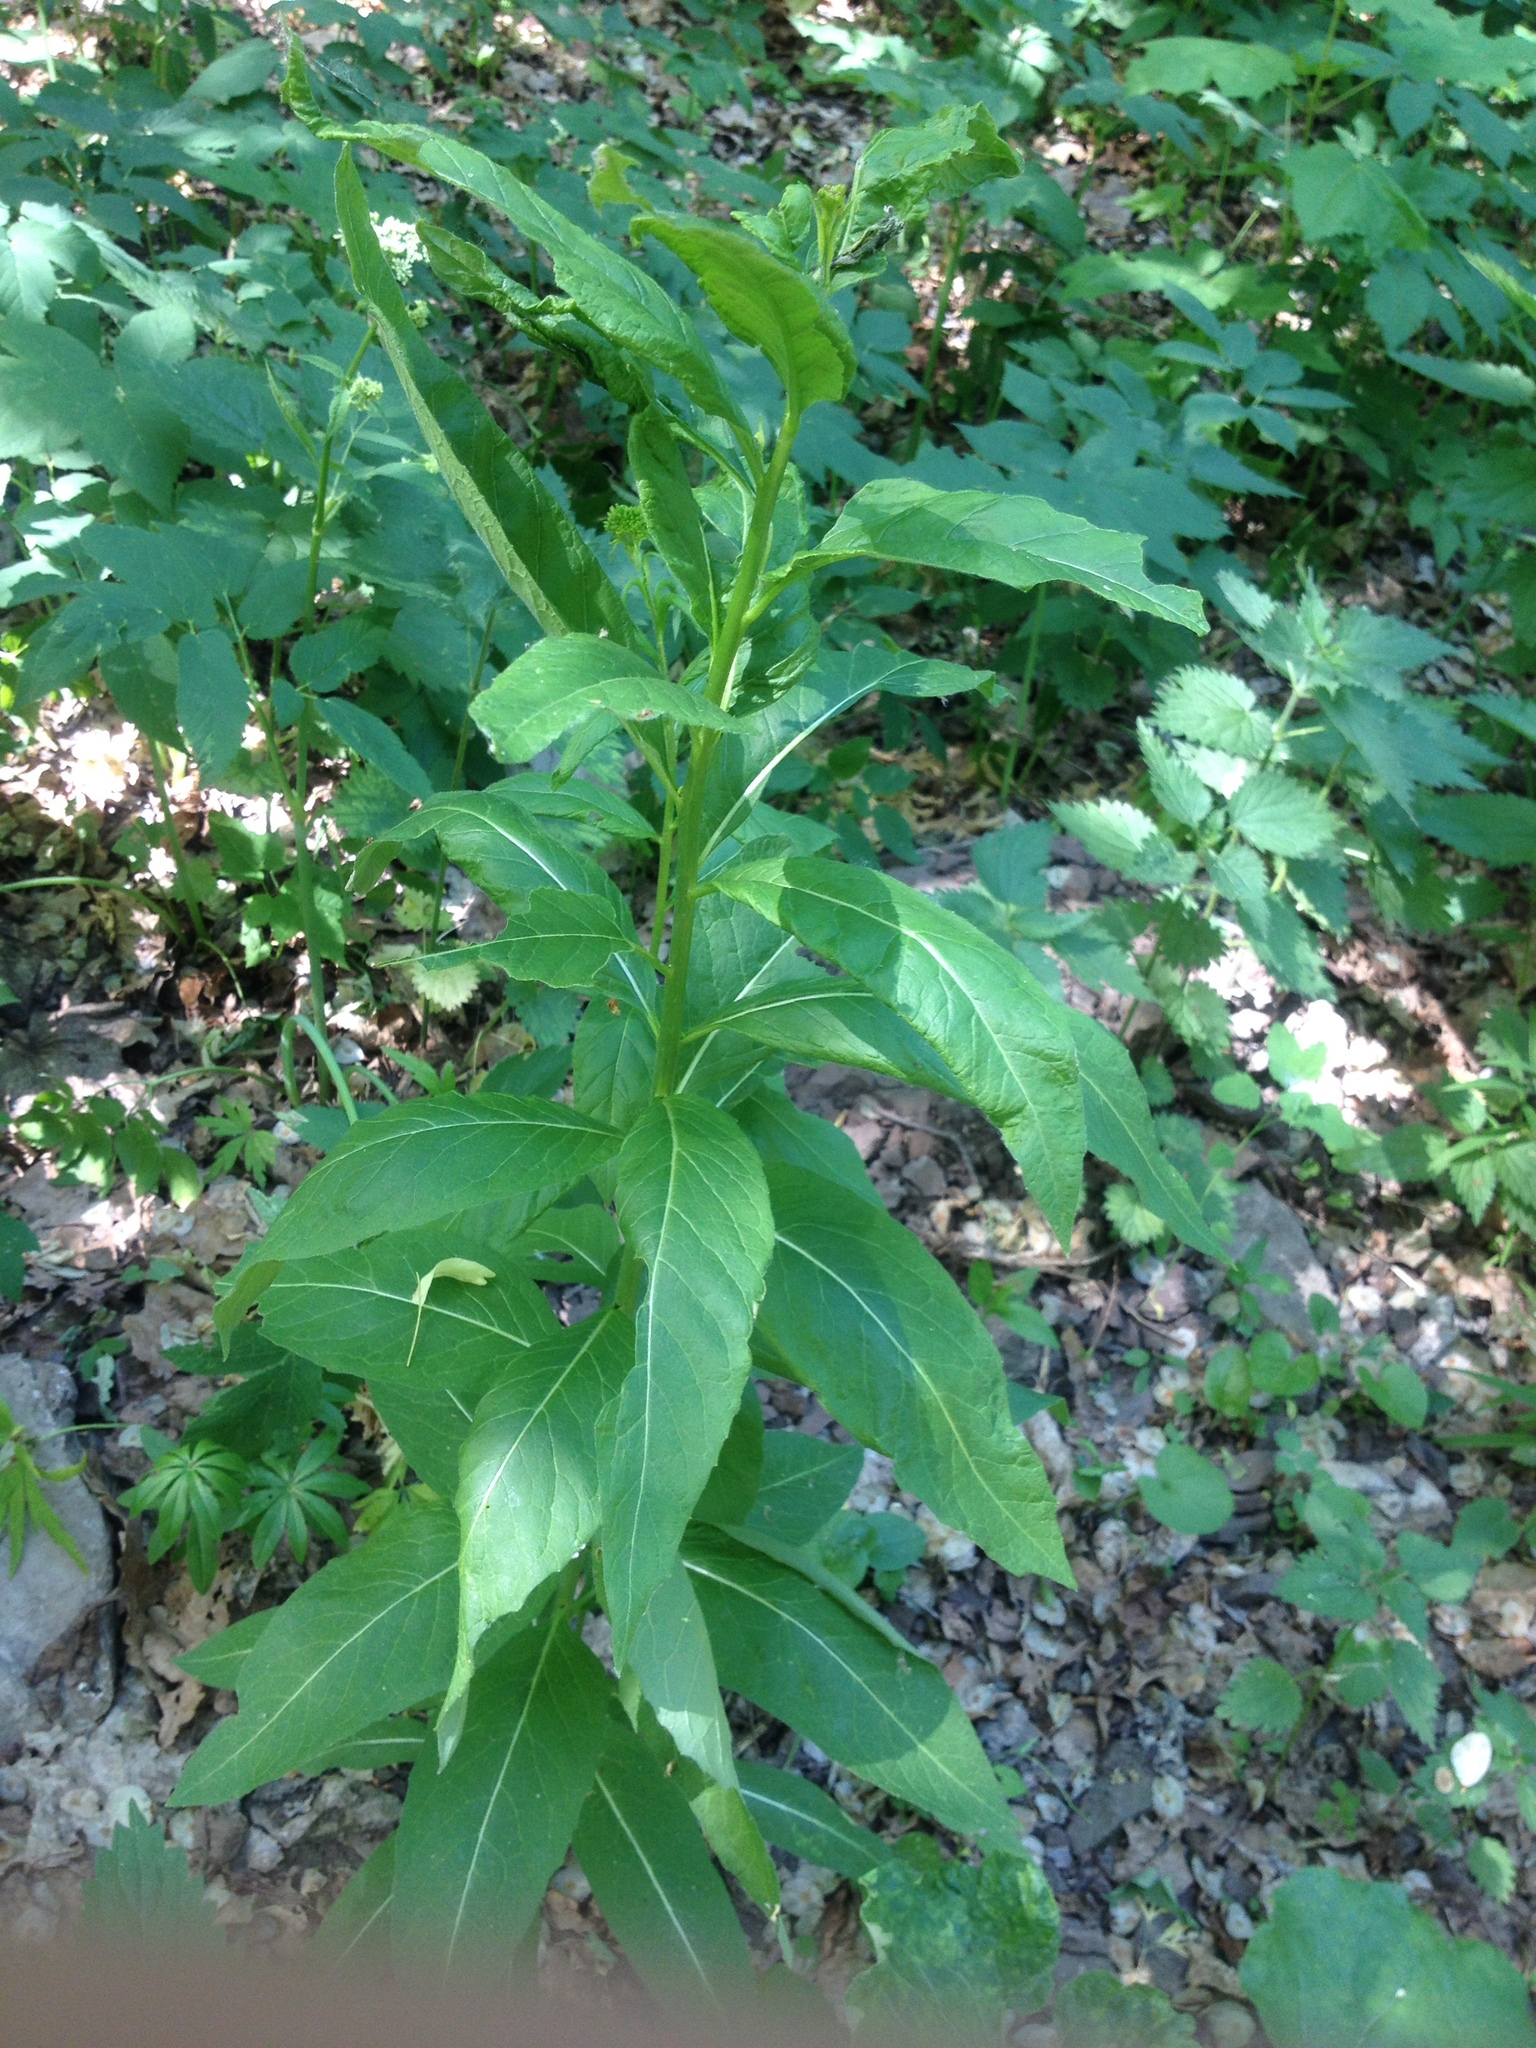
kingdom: Plantae
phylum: Tracheophyta
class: Magnoliopsida
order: Myrtales
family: Onagraceae
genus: Chamaenerion
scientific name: Chamaenerion angustifolium
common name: Fireweed
